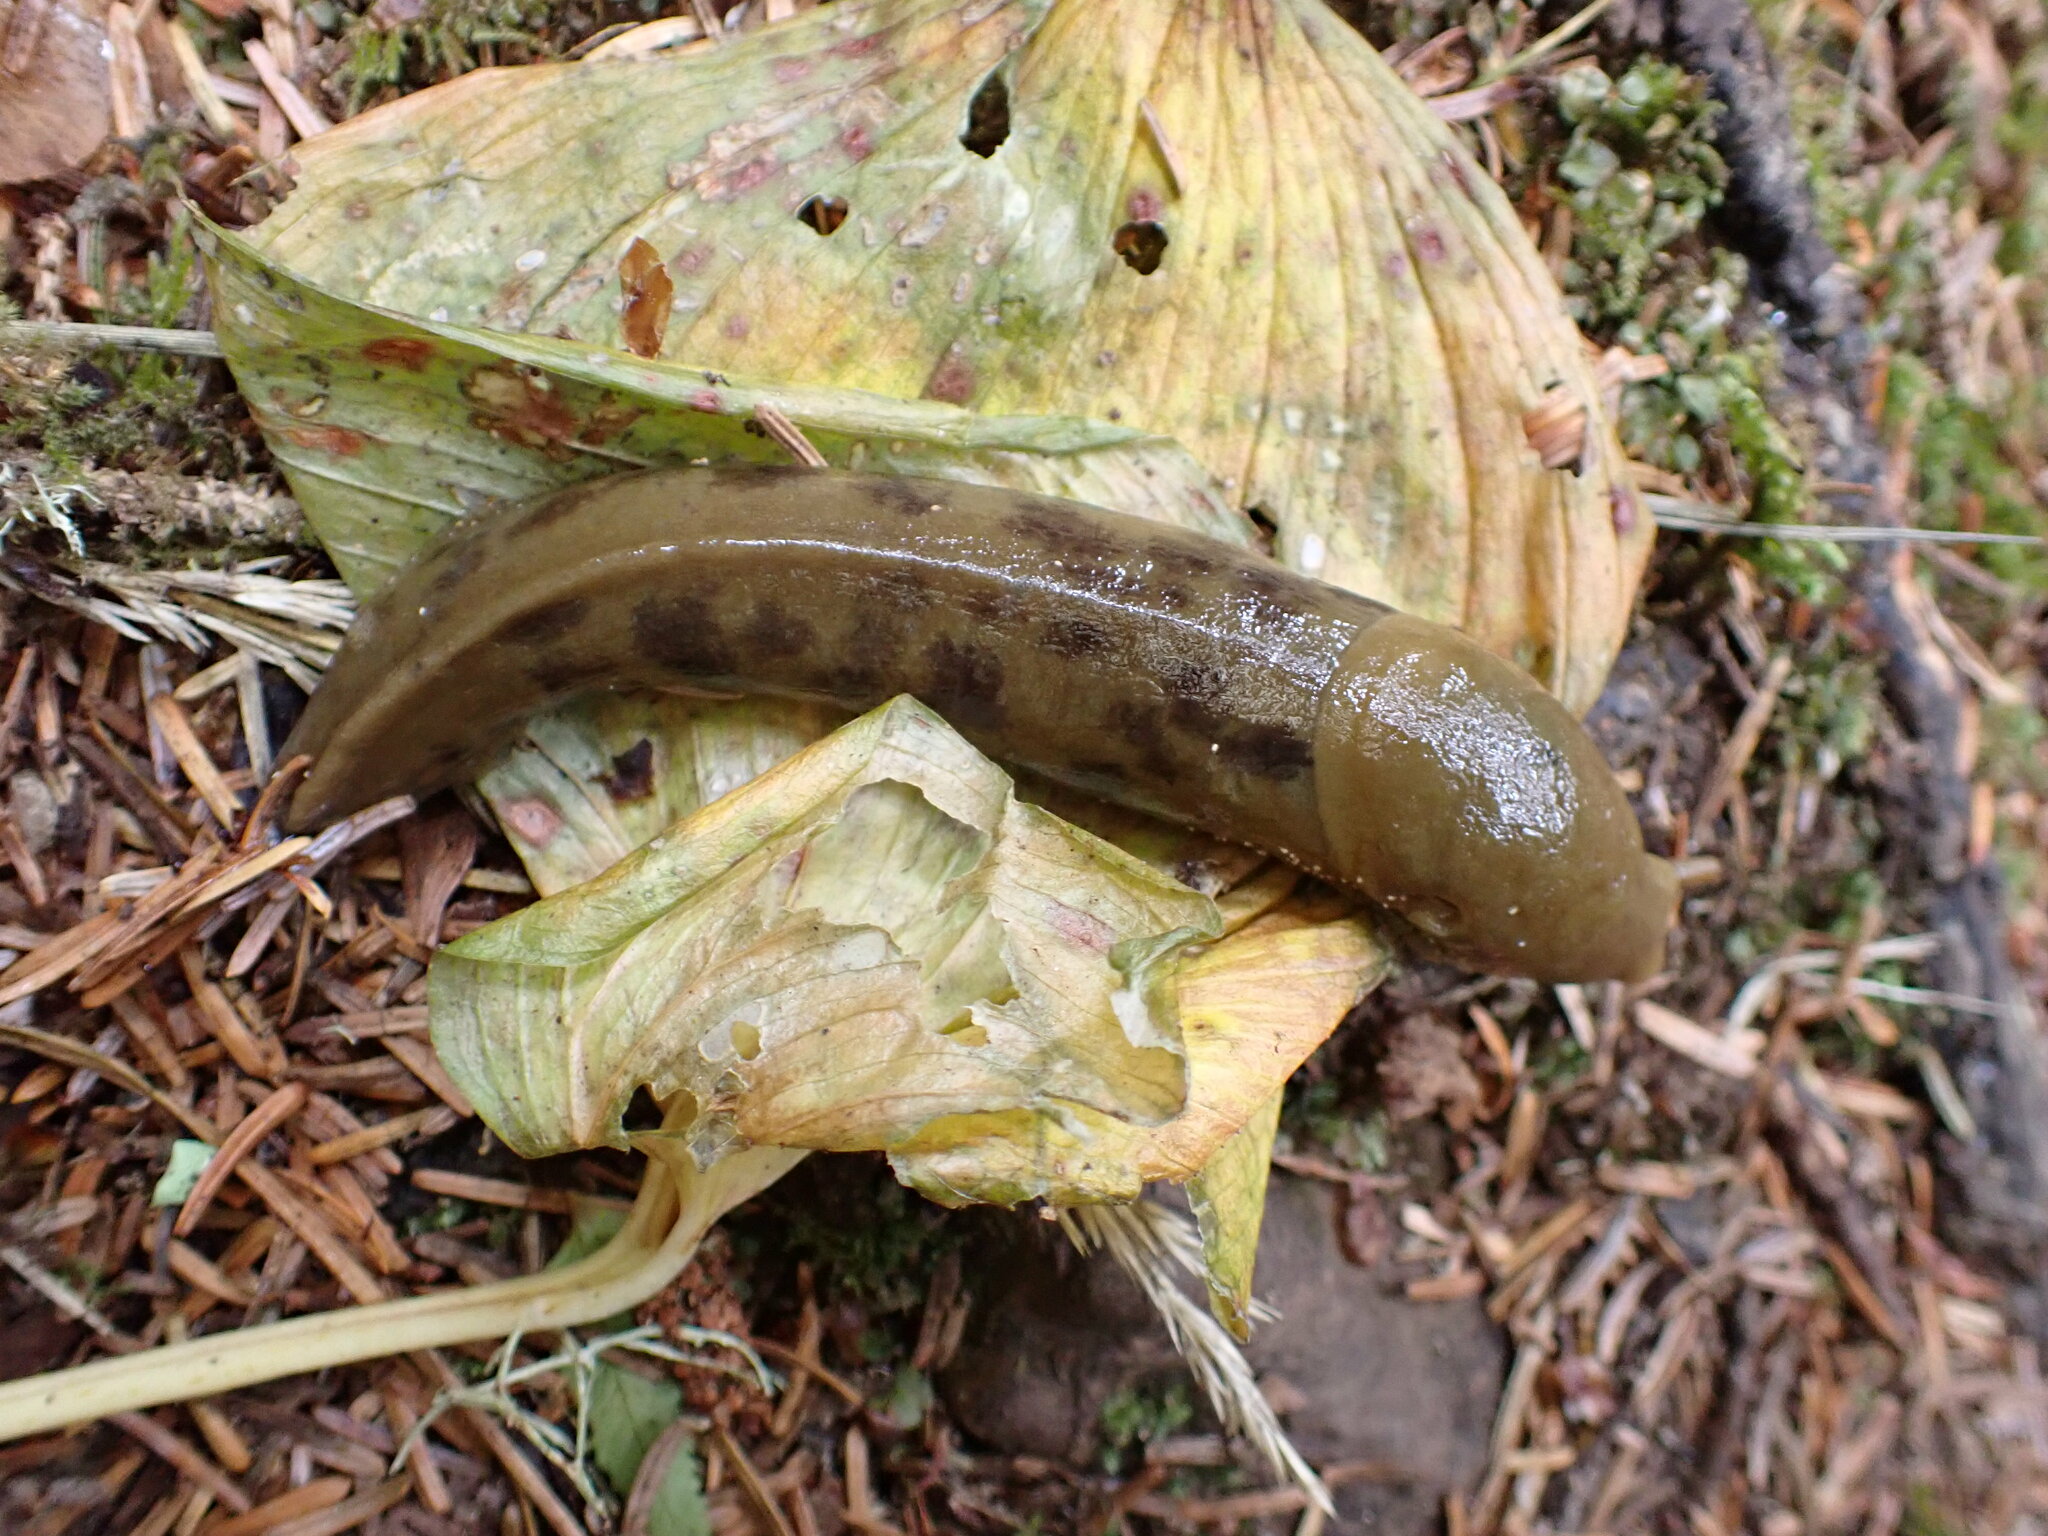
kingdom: Animalia
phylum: Mollusca
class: Gastropoda
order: Stylommatophora
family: Ariolimacidae
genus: Ariolimax
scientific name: Ariolimax columbianus
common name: Pacific banana slug
